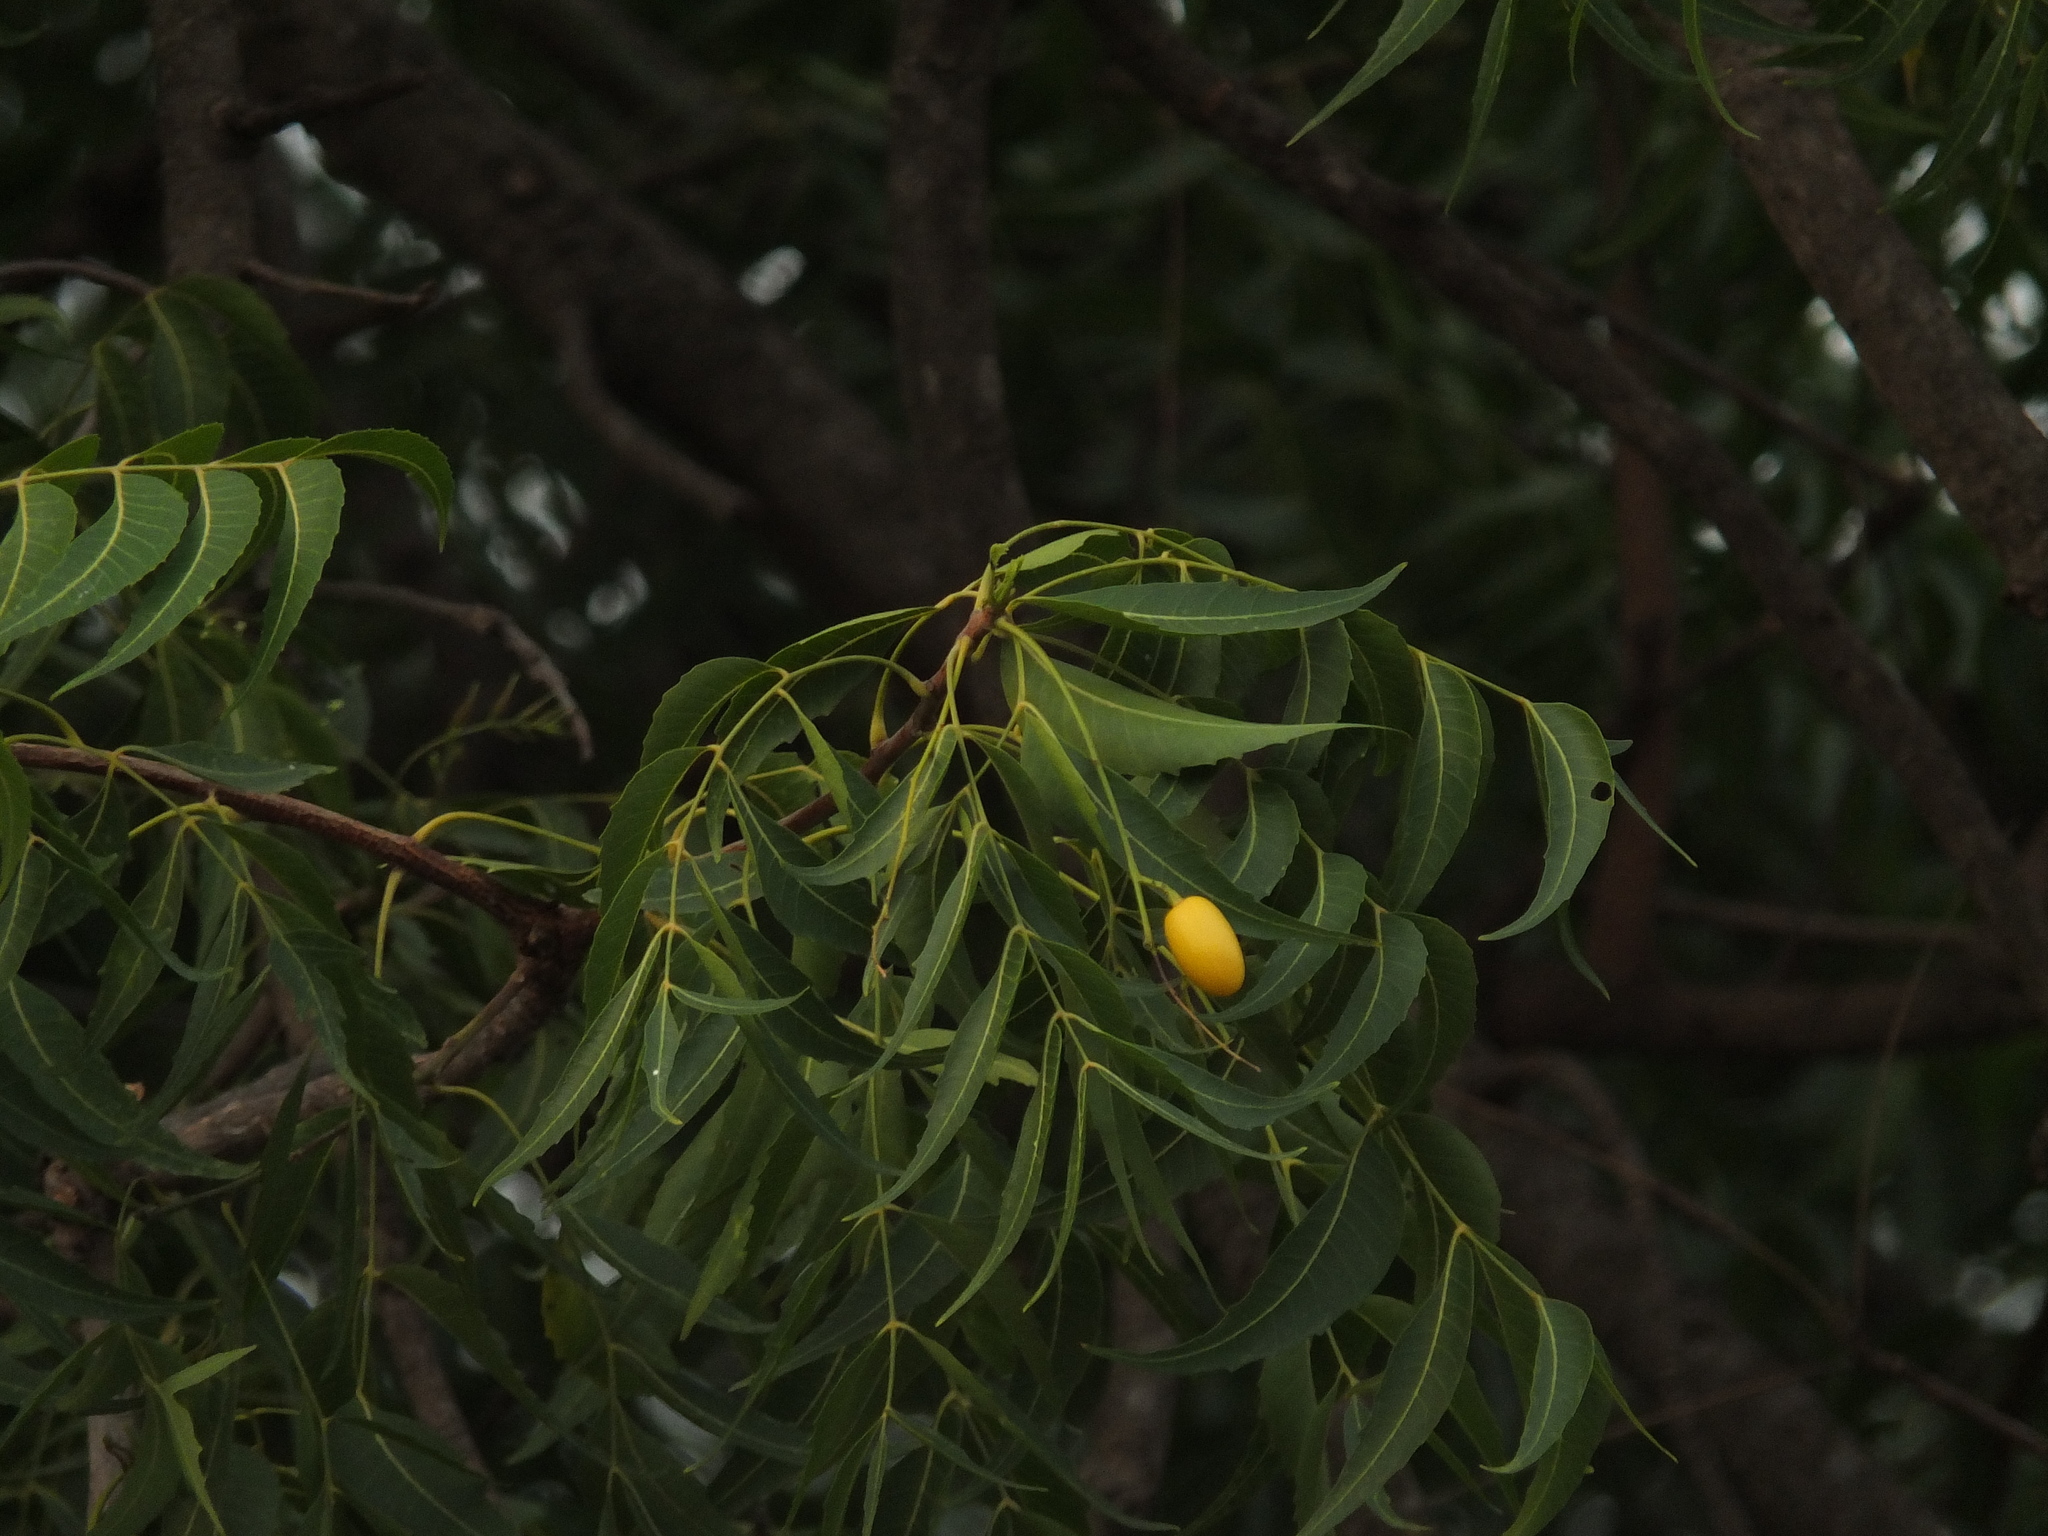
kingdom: Plantae
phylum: Tracheophyta
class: Magnoliopsida
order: Sapindales
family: Meliaceae
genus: Azadirachta
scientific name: Azadirachta indica
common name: Neem
